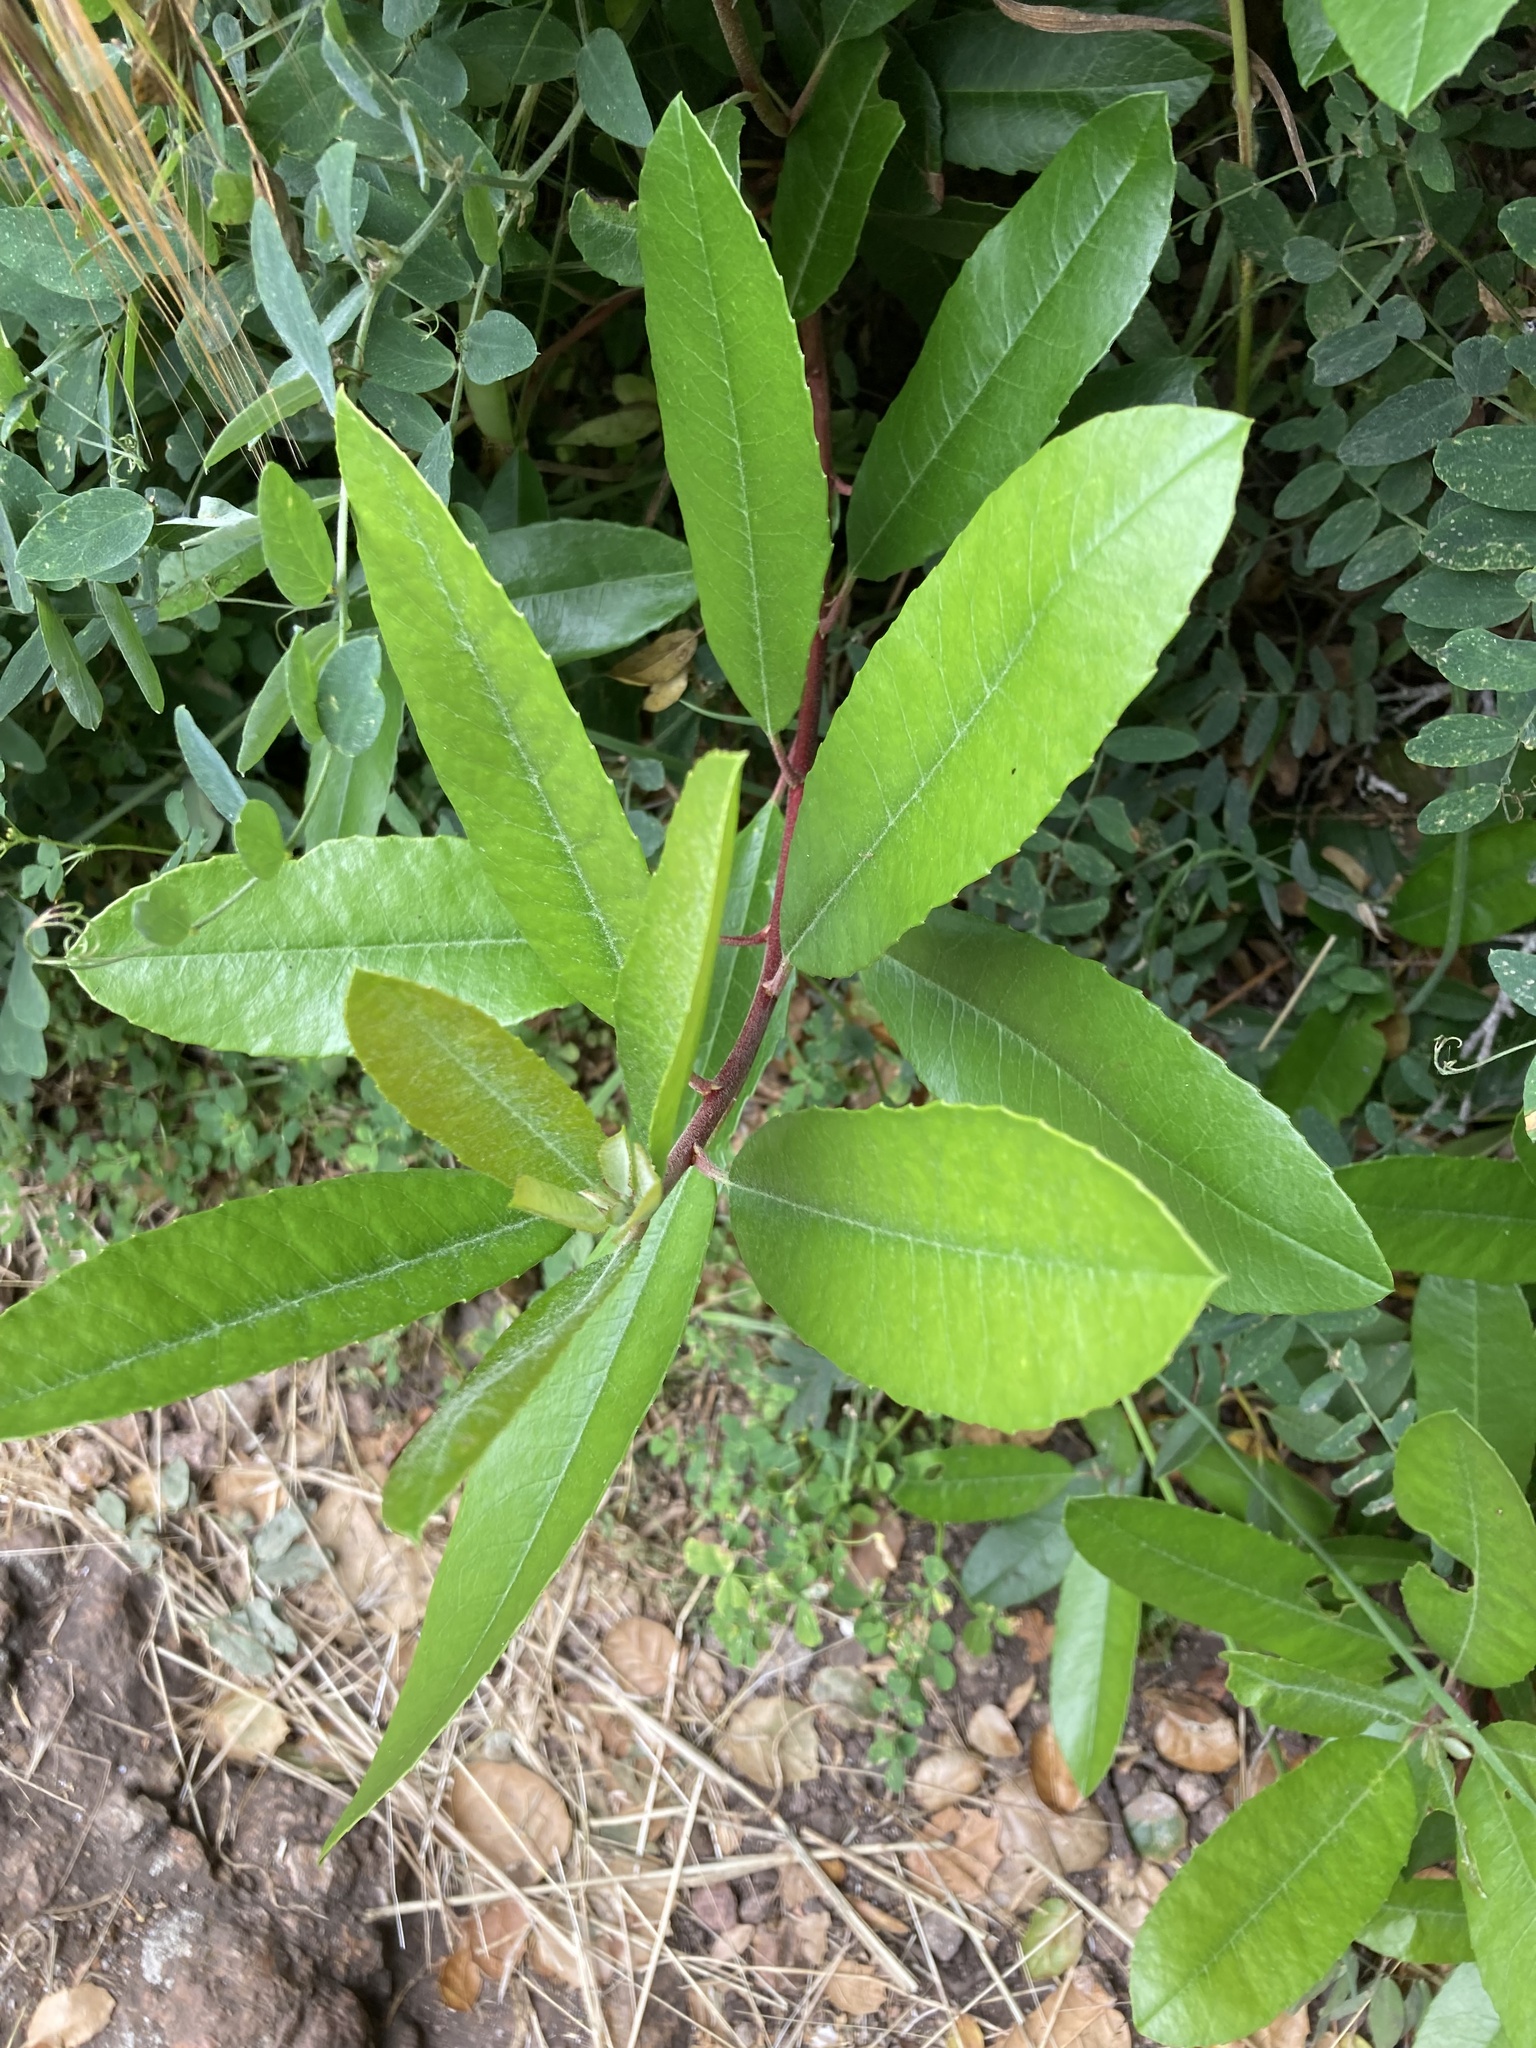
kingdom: Plantae
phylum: Tracheophyta
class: Magnoliopsida
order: Rosales
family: Rosaceae
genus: Heteromeles
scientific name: Heteromeles arbutifolia
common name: California-holly
